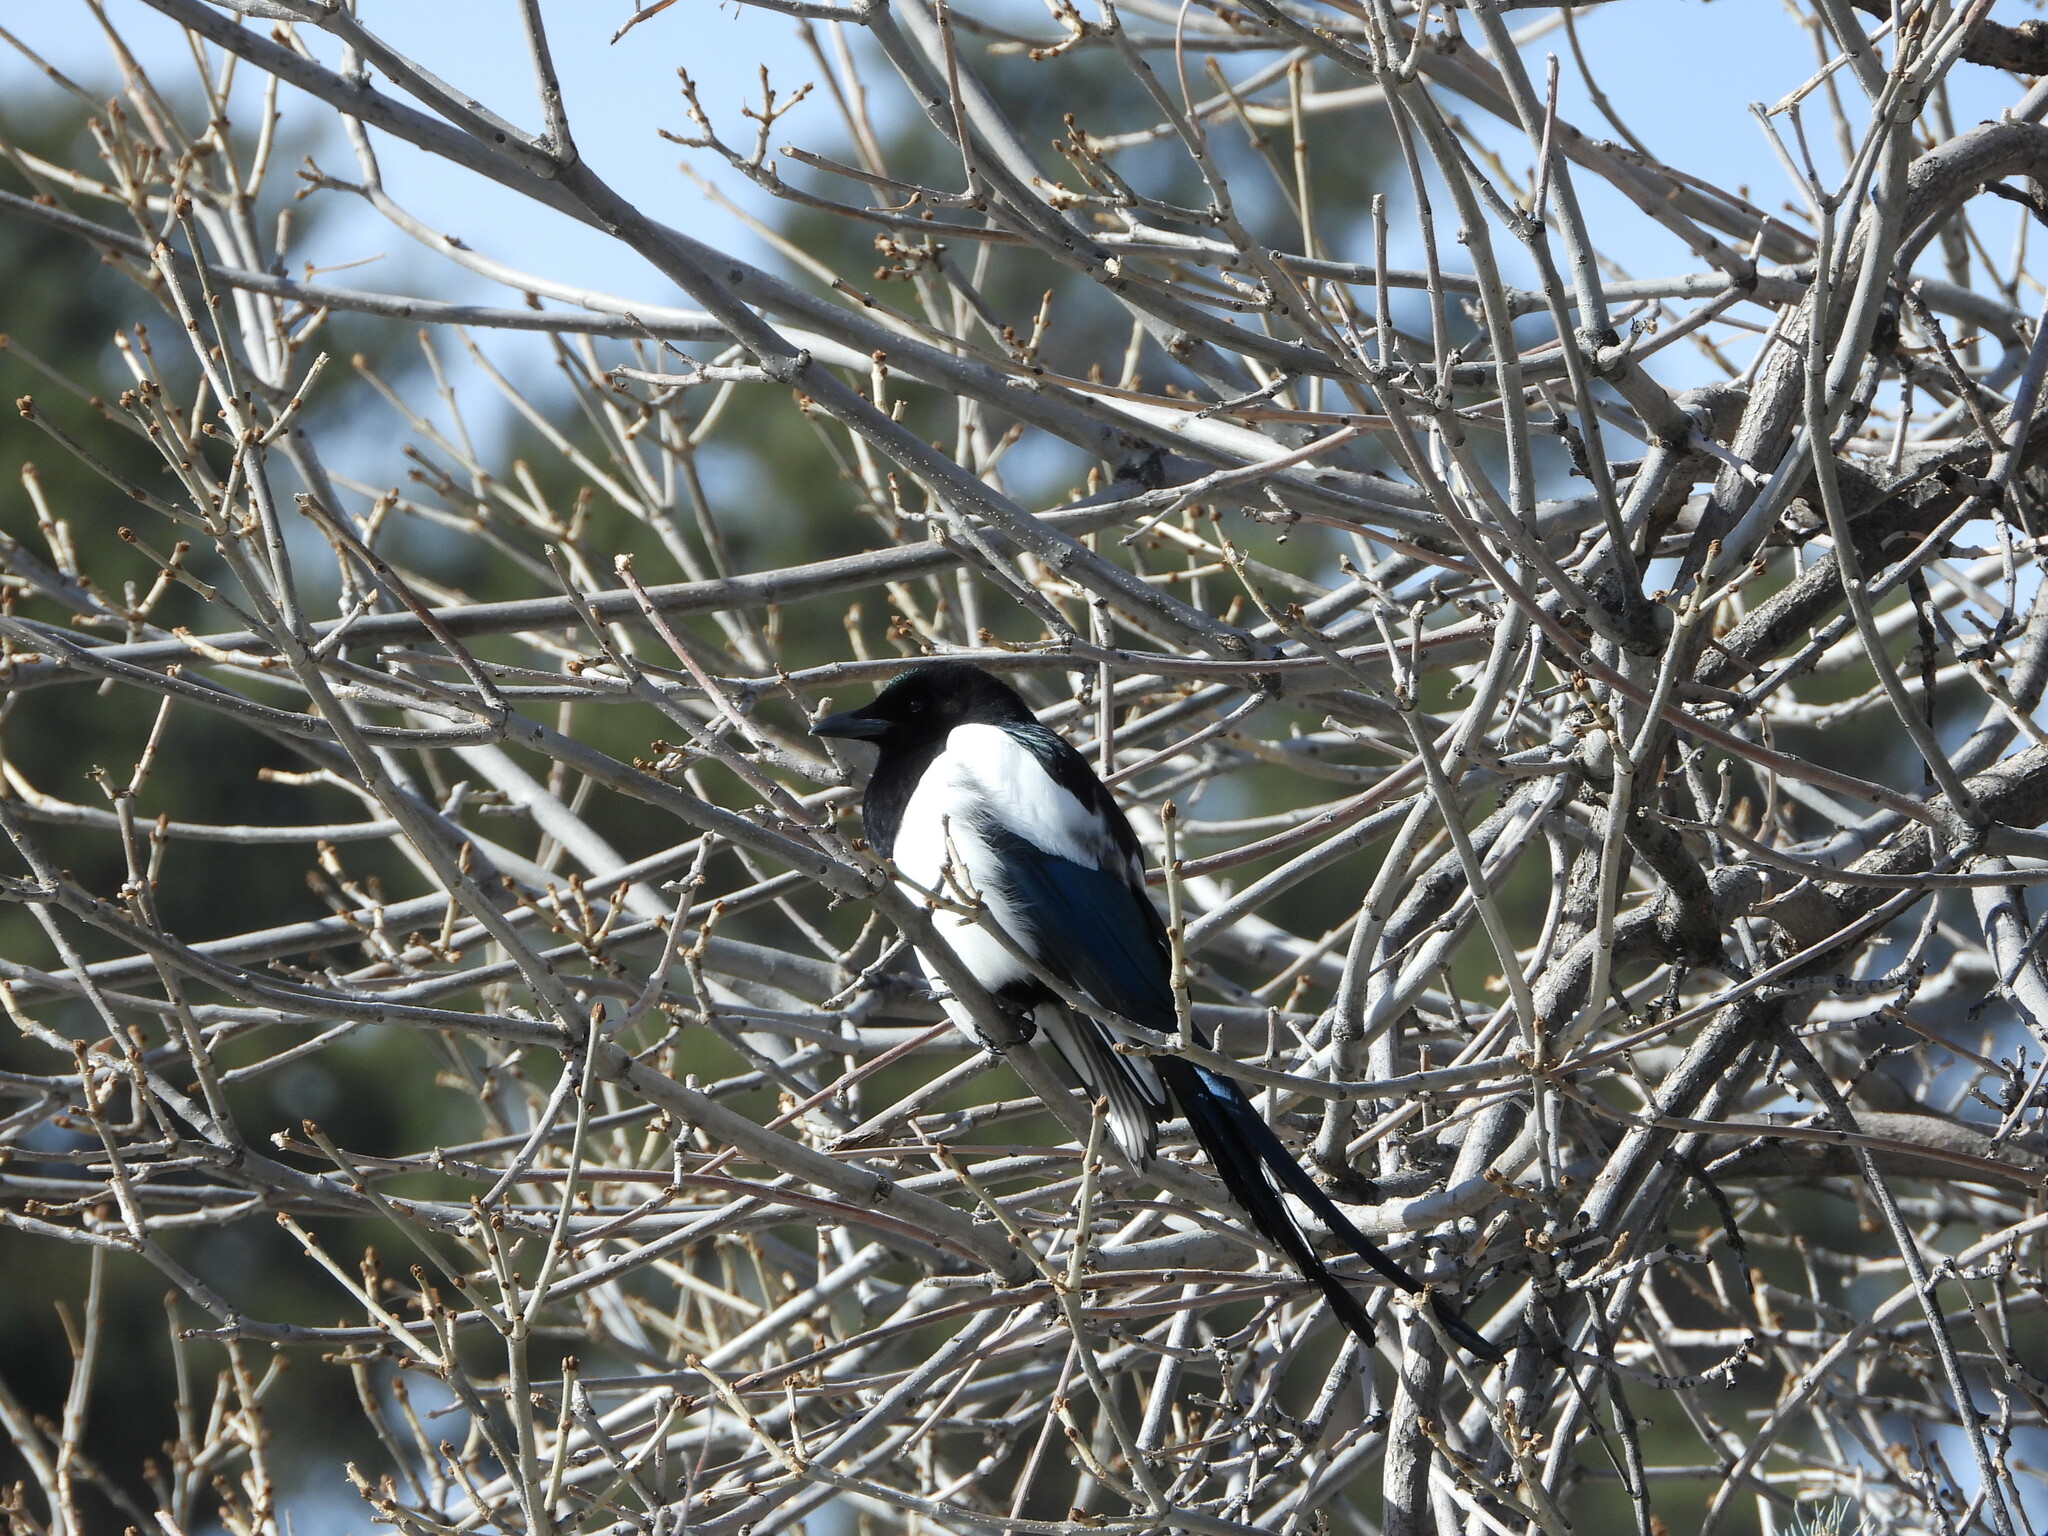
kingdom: Animalia
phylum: Chordata
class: Aves
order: Passeriformes
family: Corvidae
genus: Pica
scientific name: Pica hudsonia
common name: Black-billed magpie
